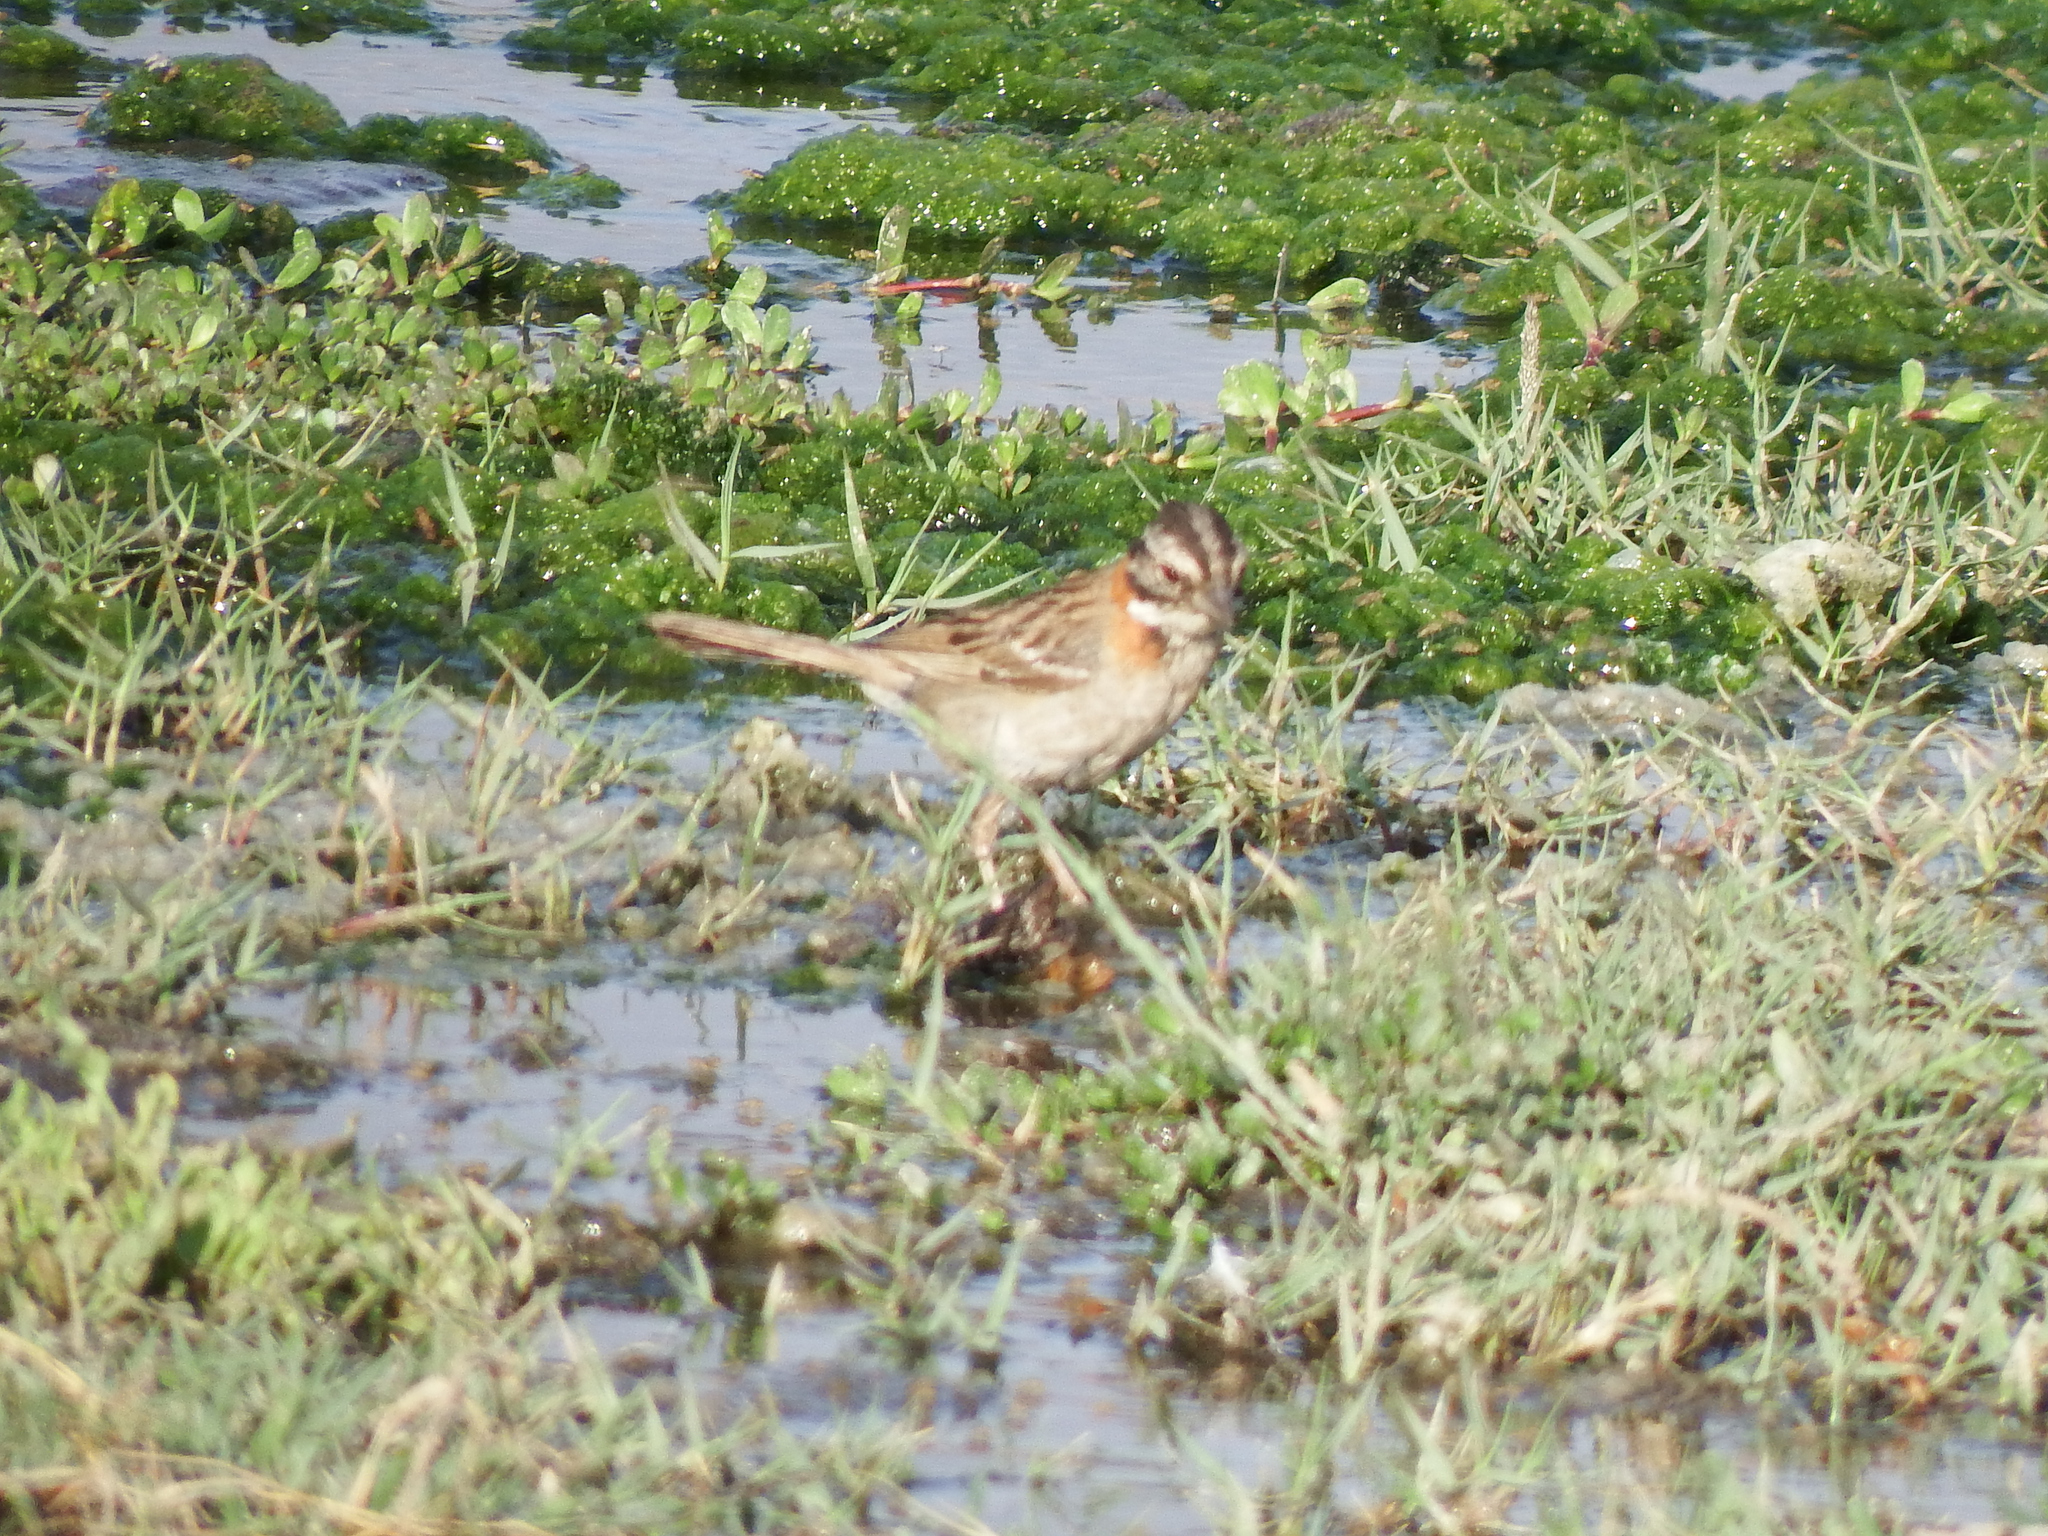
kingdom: Animalia
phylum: Chordata
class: Aves
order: Passeriformes
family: Passerellidae
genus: Zonotrichia
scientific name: Zonotrichia capensis
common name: Rufous-collared sparrow
